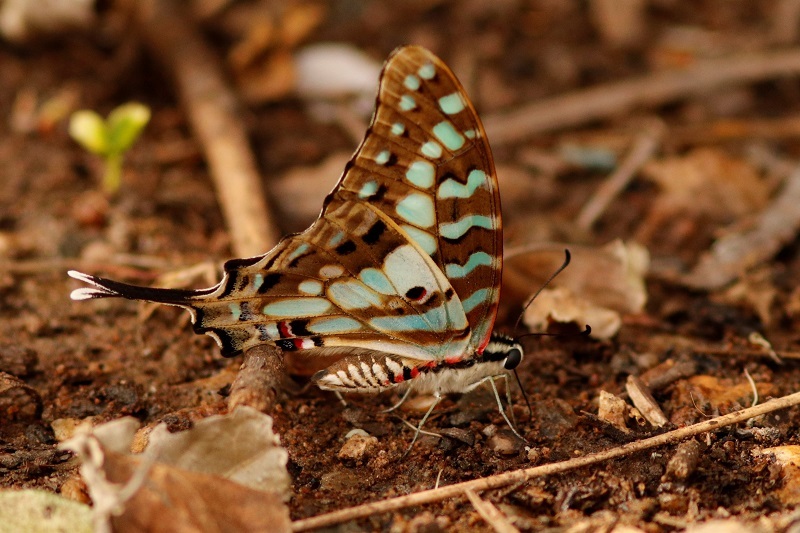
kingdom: Animalia
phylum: Arthropoda
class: Insecta
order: Lepidoptera
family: Papilionidae
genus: Graphium
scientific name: Graphium antheus
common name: Large striped swordtail
